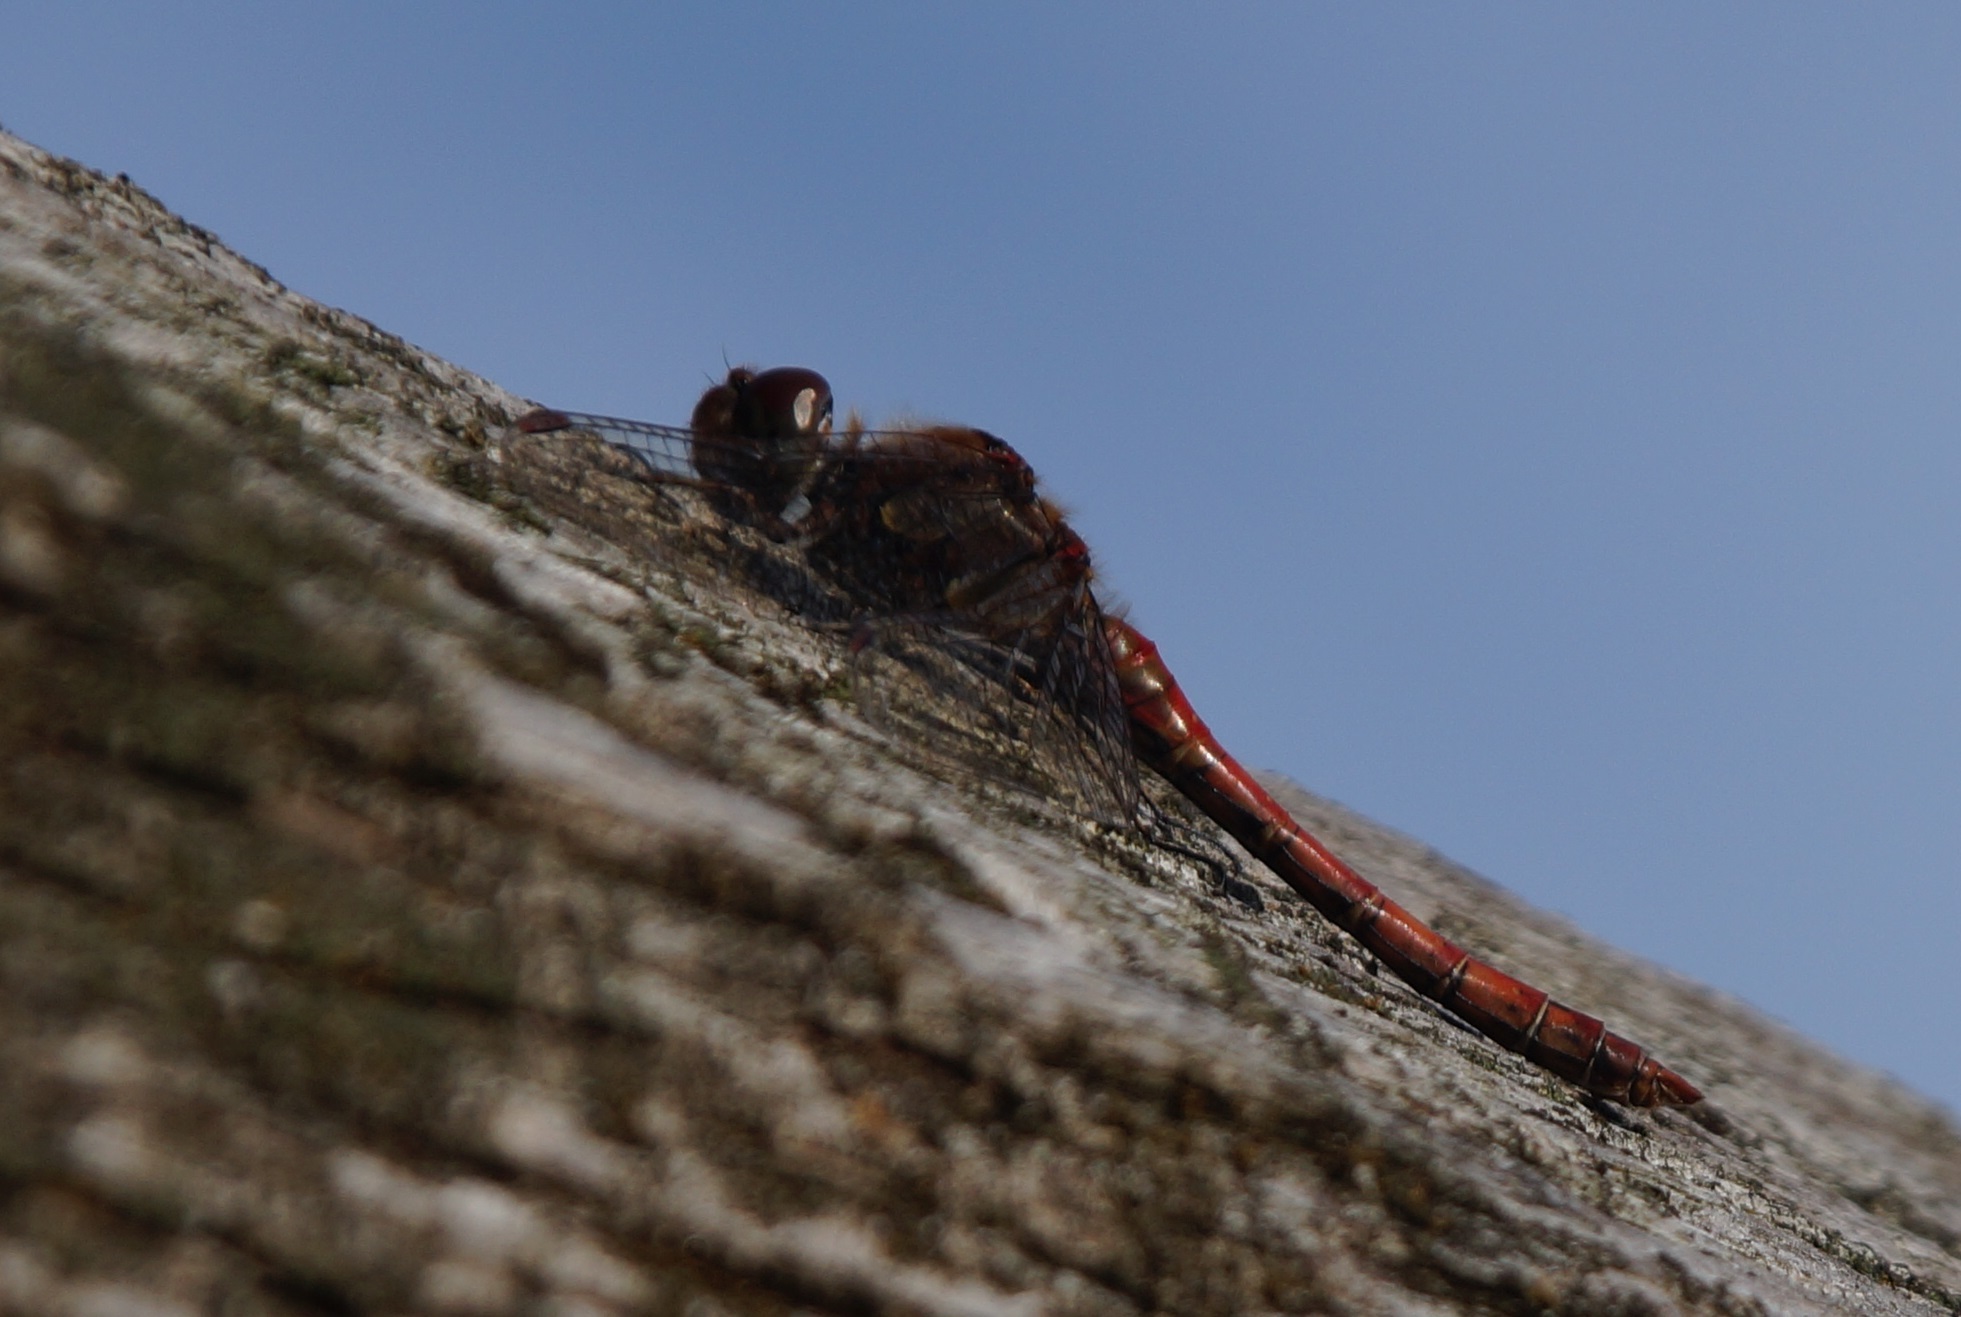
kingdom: Animalia
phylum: Arthropoda
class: Insecta
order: Odonata
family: Libellulidae
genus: Sympetrum
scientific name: Sympetrum striolatum
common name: Common darter
